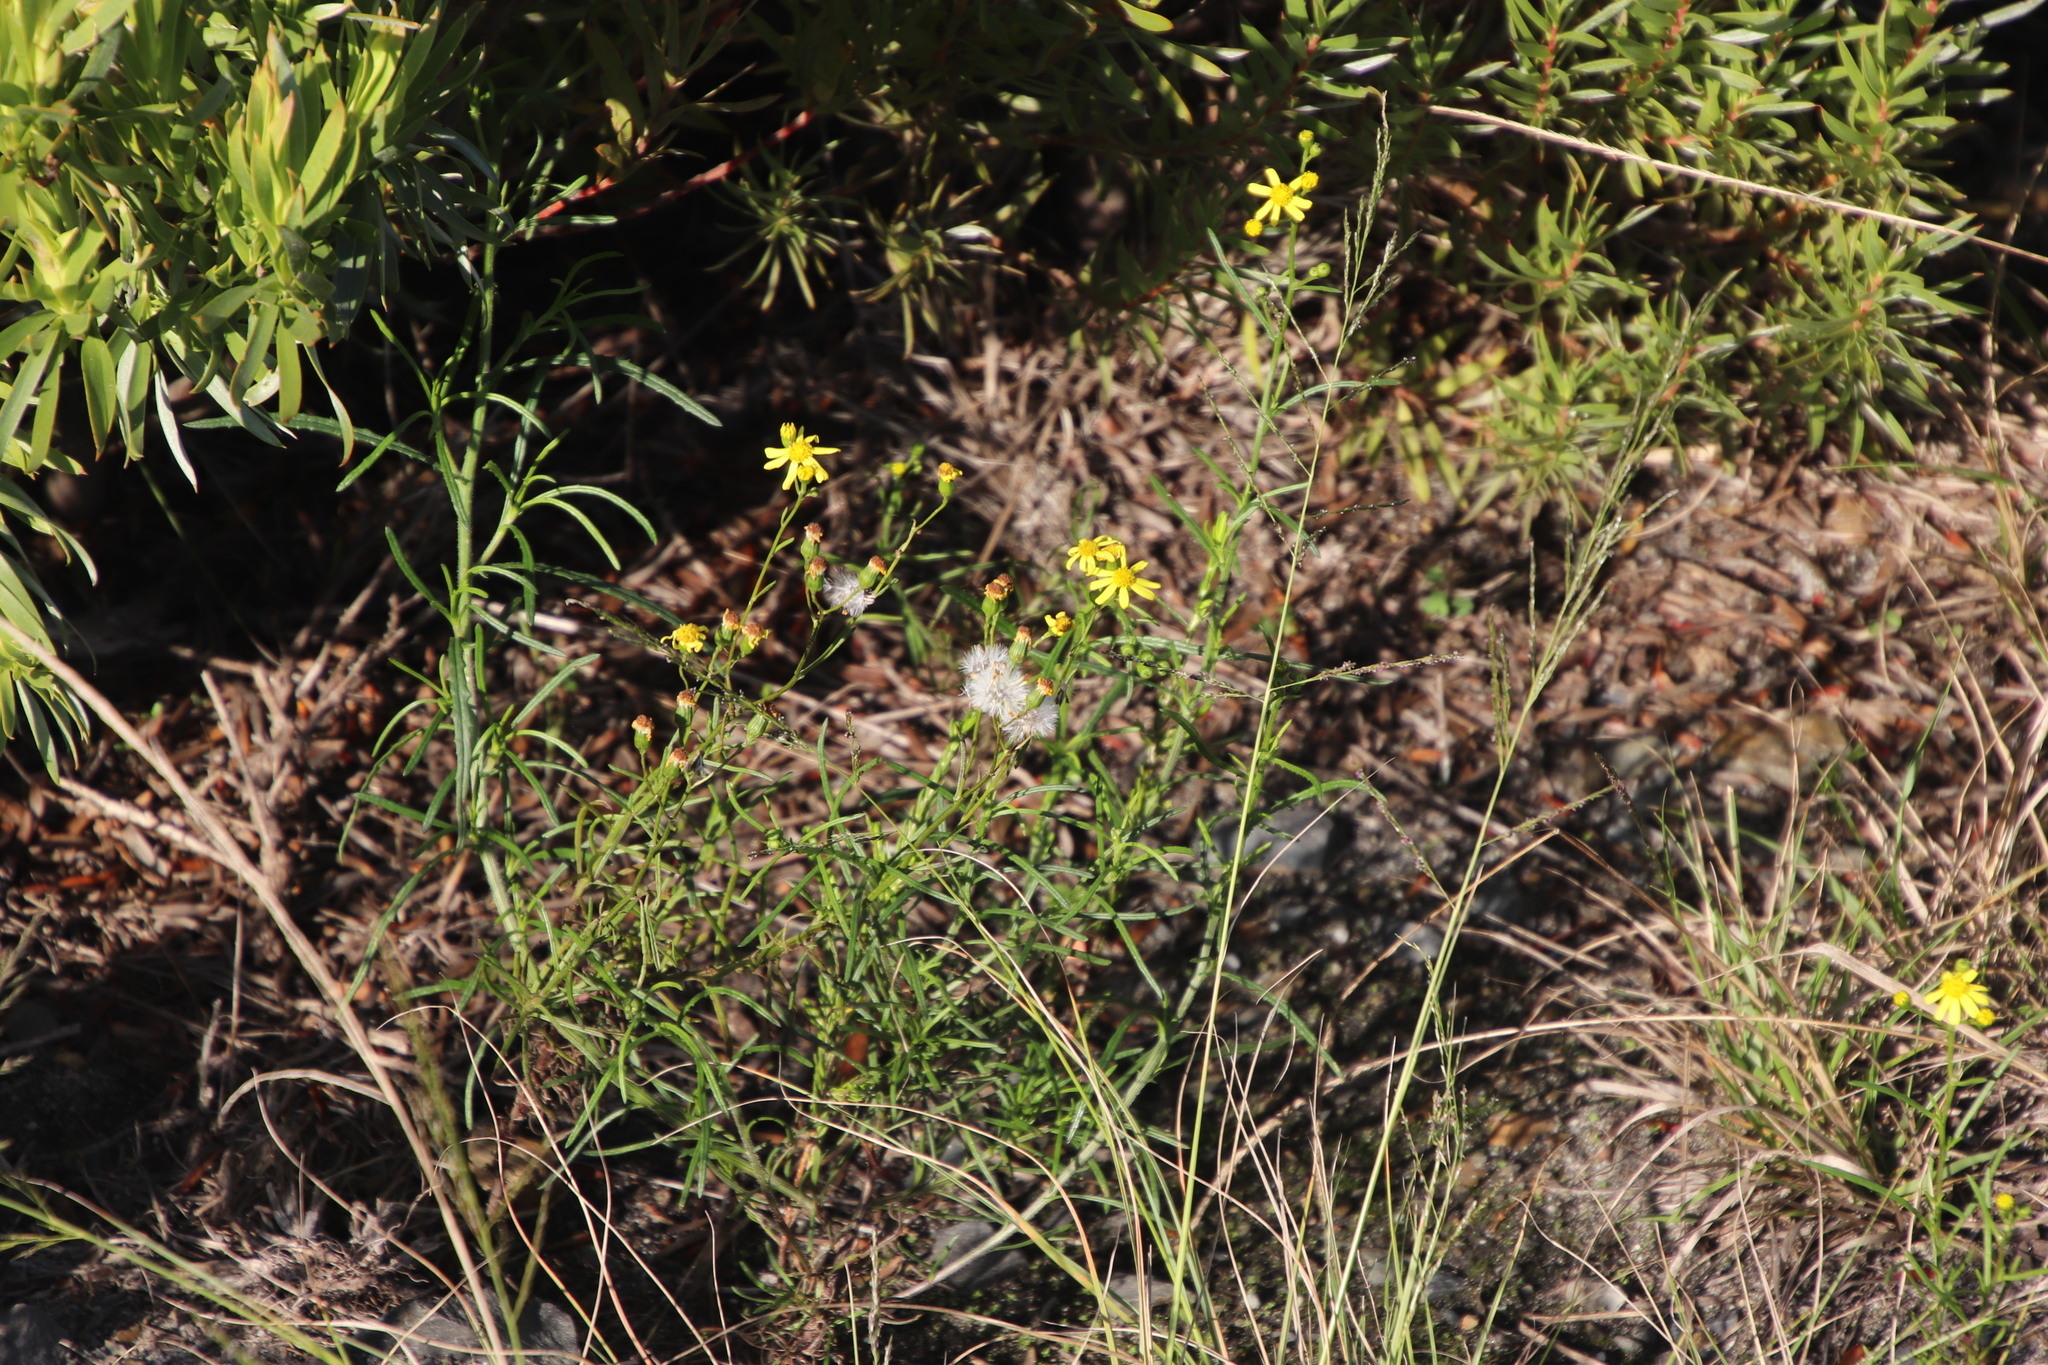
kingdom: Plantae
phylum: Tracheophyta
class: Magnoliopsida
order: Asterales
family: Asteraceae
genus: Senecio
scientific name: Senecio burchellii
